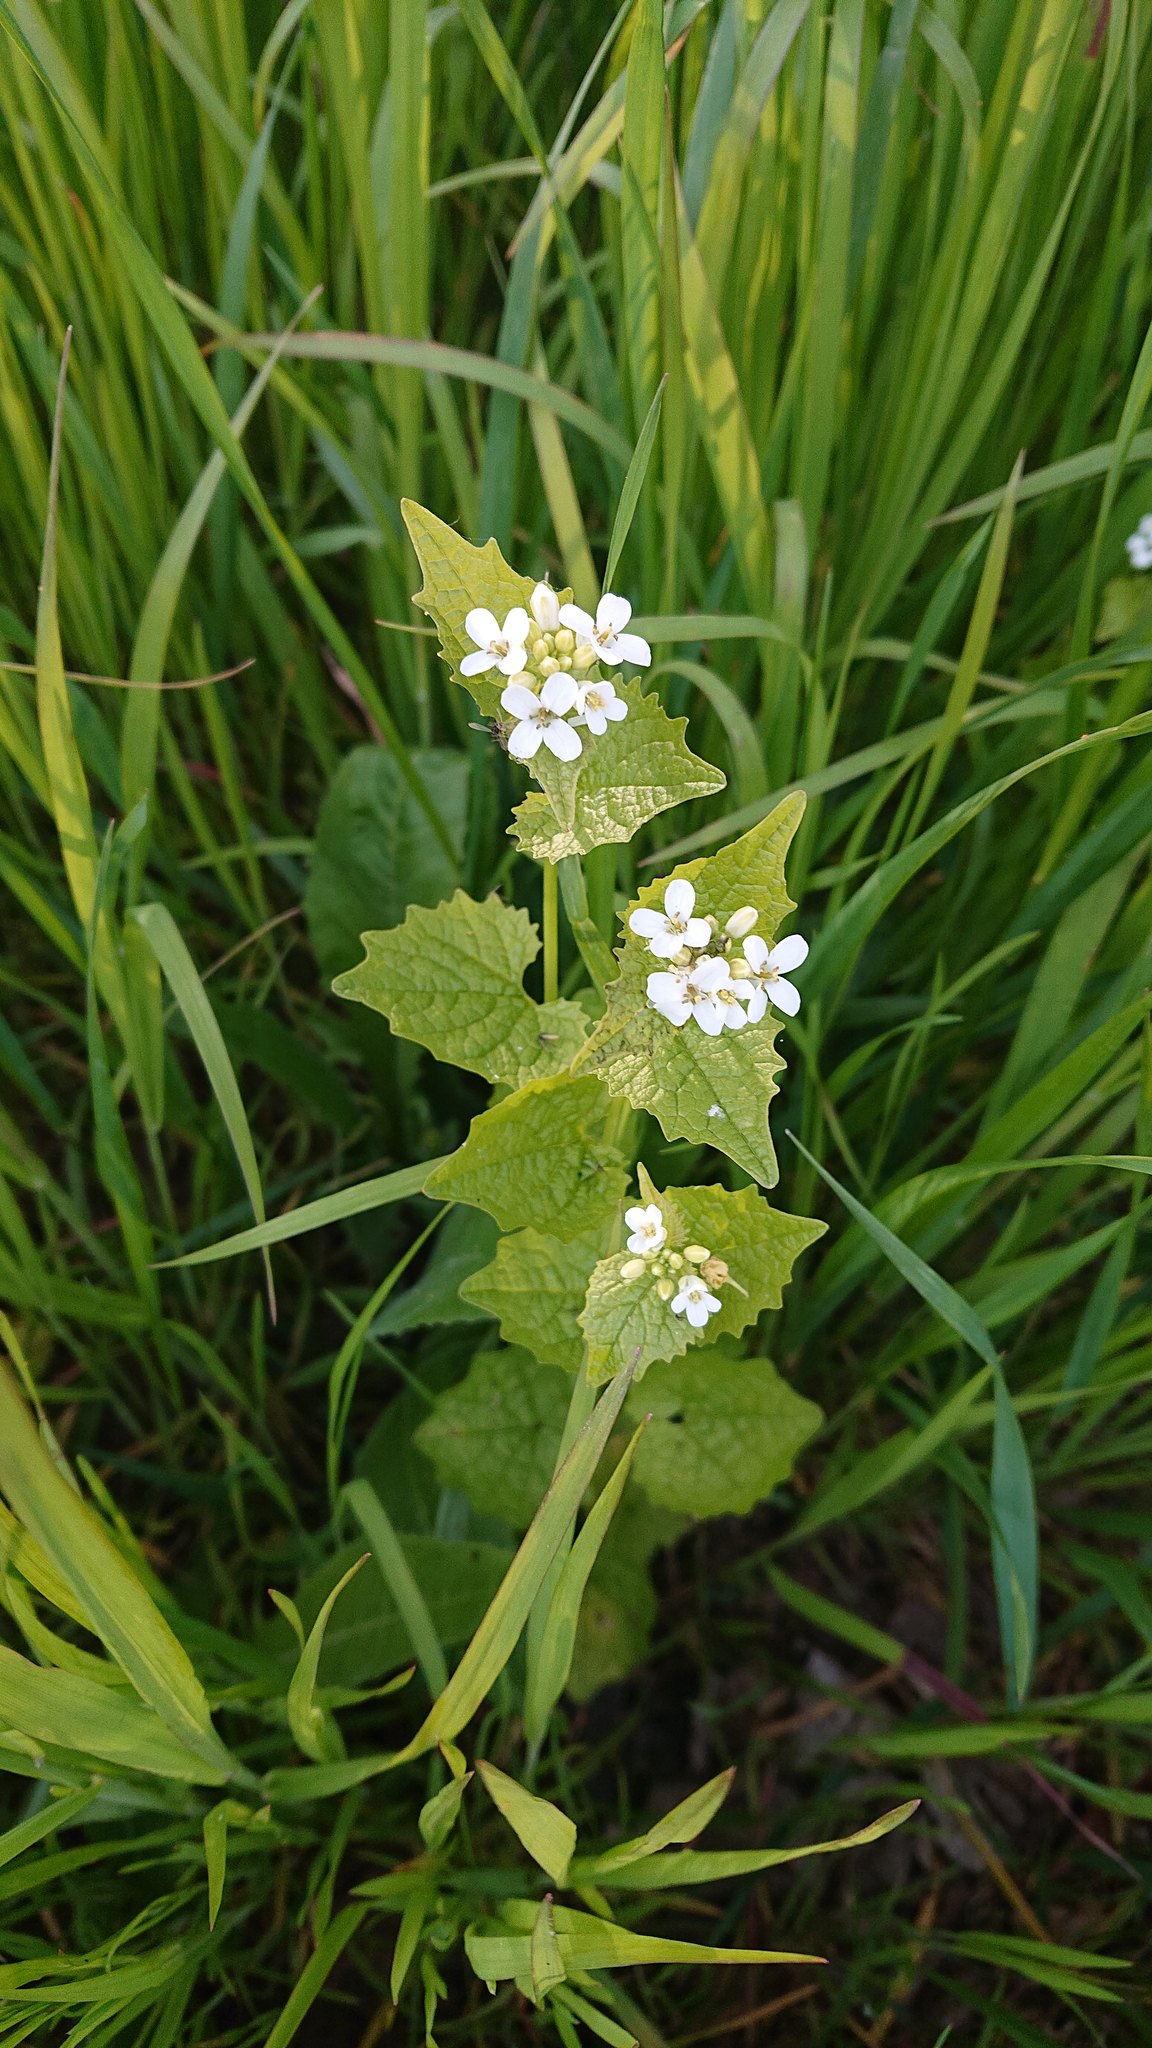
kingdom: Plantae
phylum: Tracheophyta
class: Magnoliopsida
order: Brassicales
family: Brassicaceae
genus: Alliaria
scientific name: Alliaria petiolata
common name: Garlic mustard
